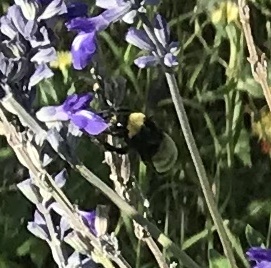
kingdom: Animalia
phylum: Arthropoda
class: Insecta
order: Hymenoptera
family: Apidae
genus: Bombus
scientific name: Bombus pensylvanicus
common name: Bumble bee
